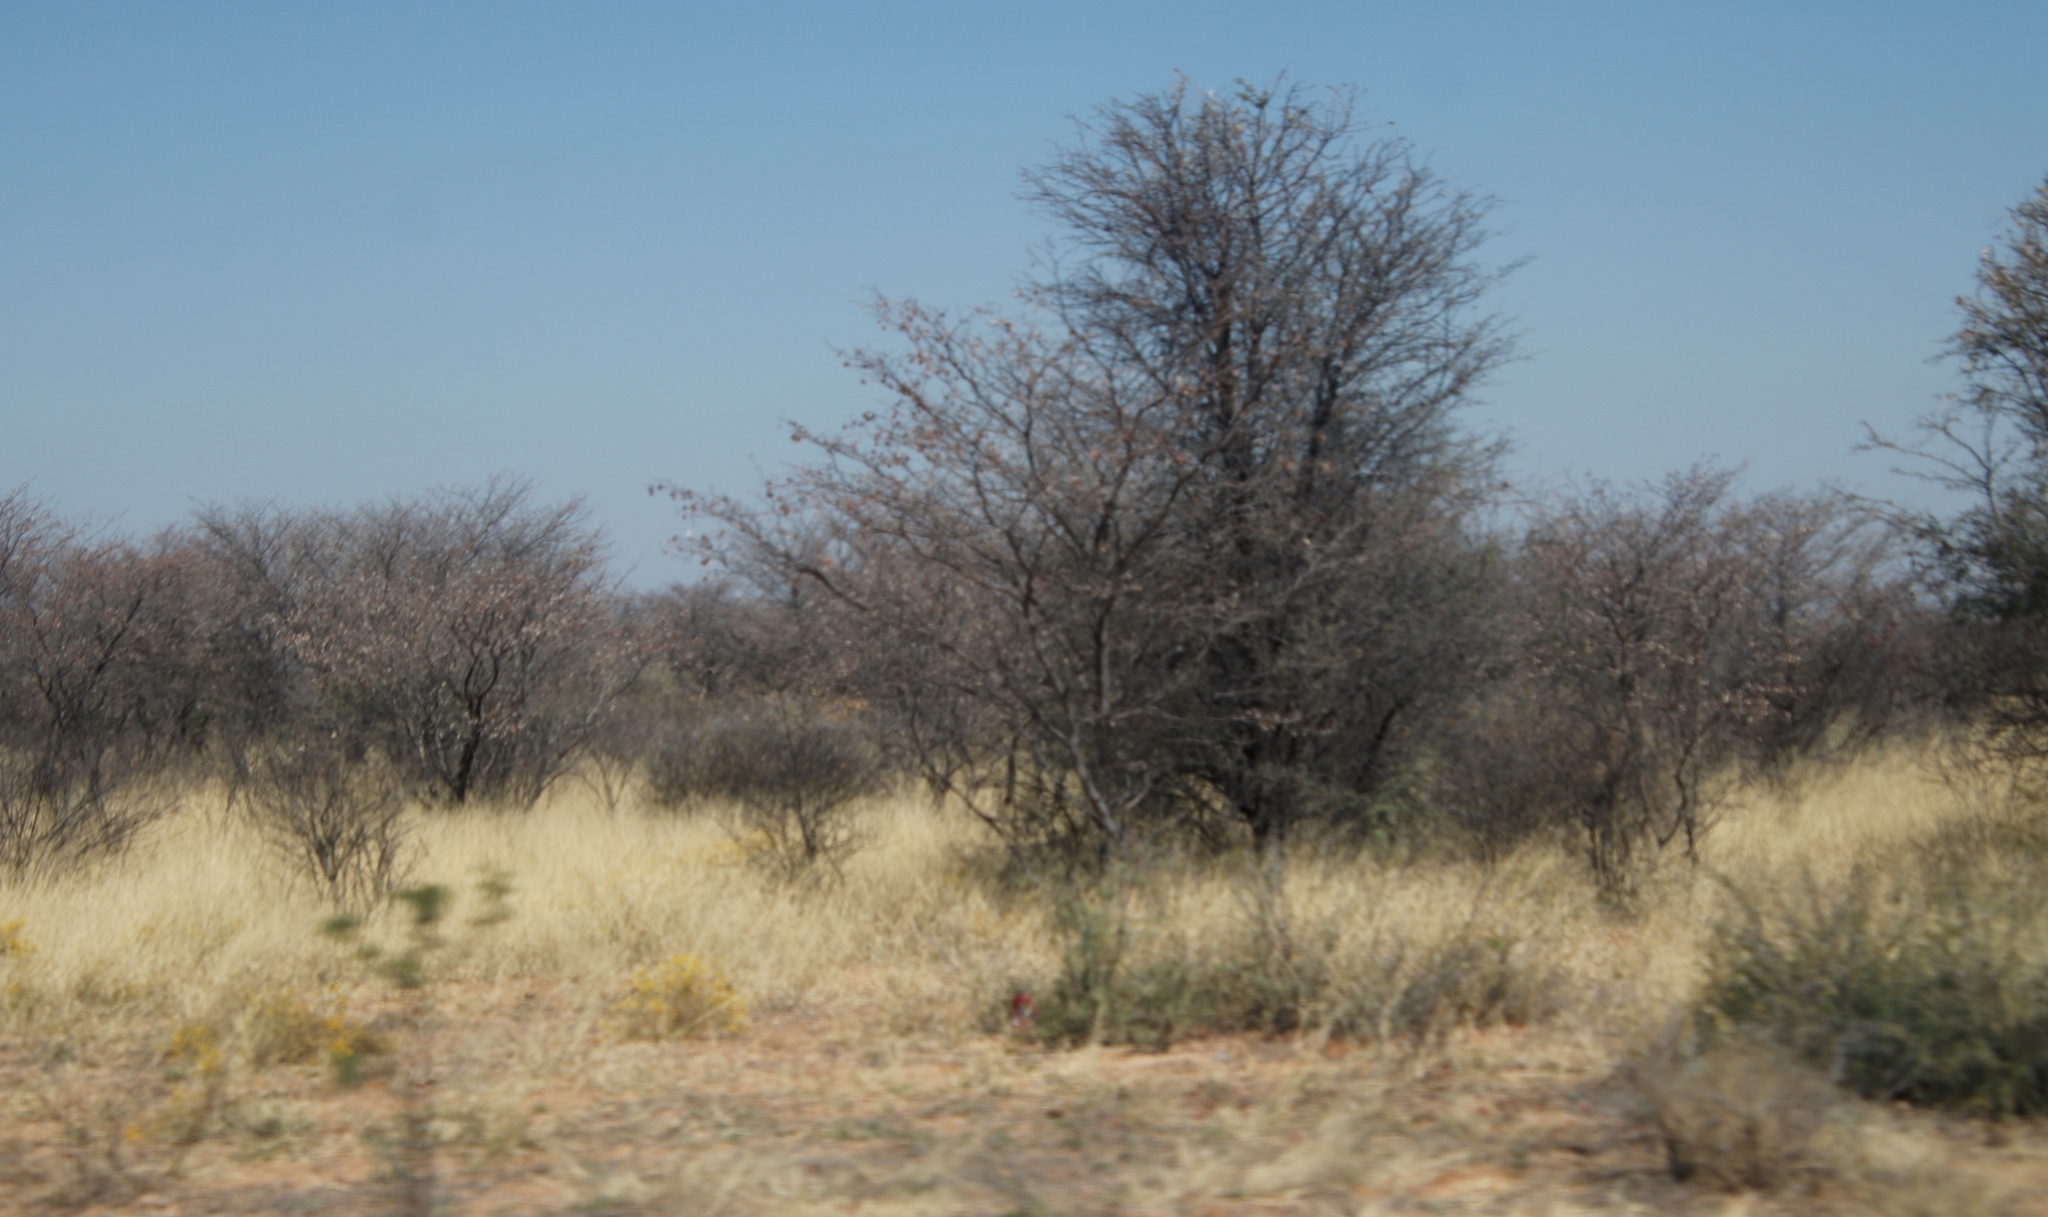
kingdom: Plantae
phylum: Tracheophyta
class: Magnoliopsida
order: Malvales
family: Thymelaeaceae
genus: Gnidia
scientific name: Gnidia polycephala
